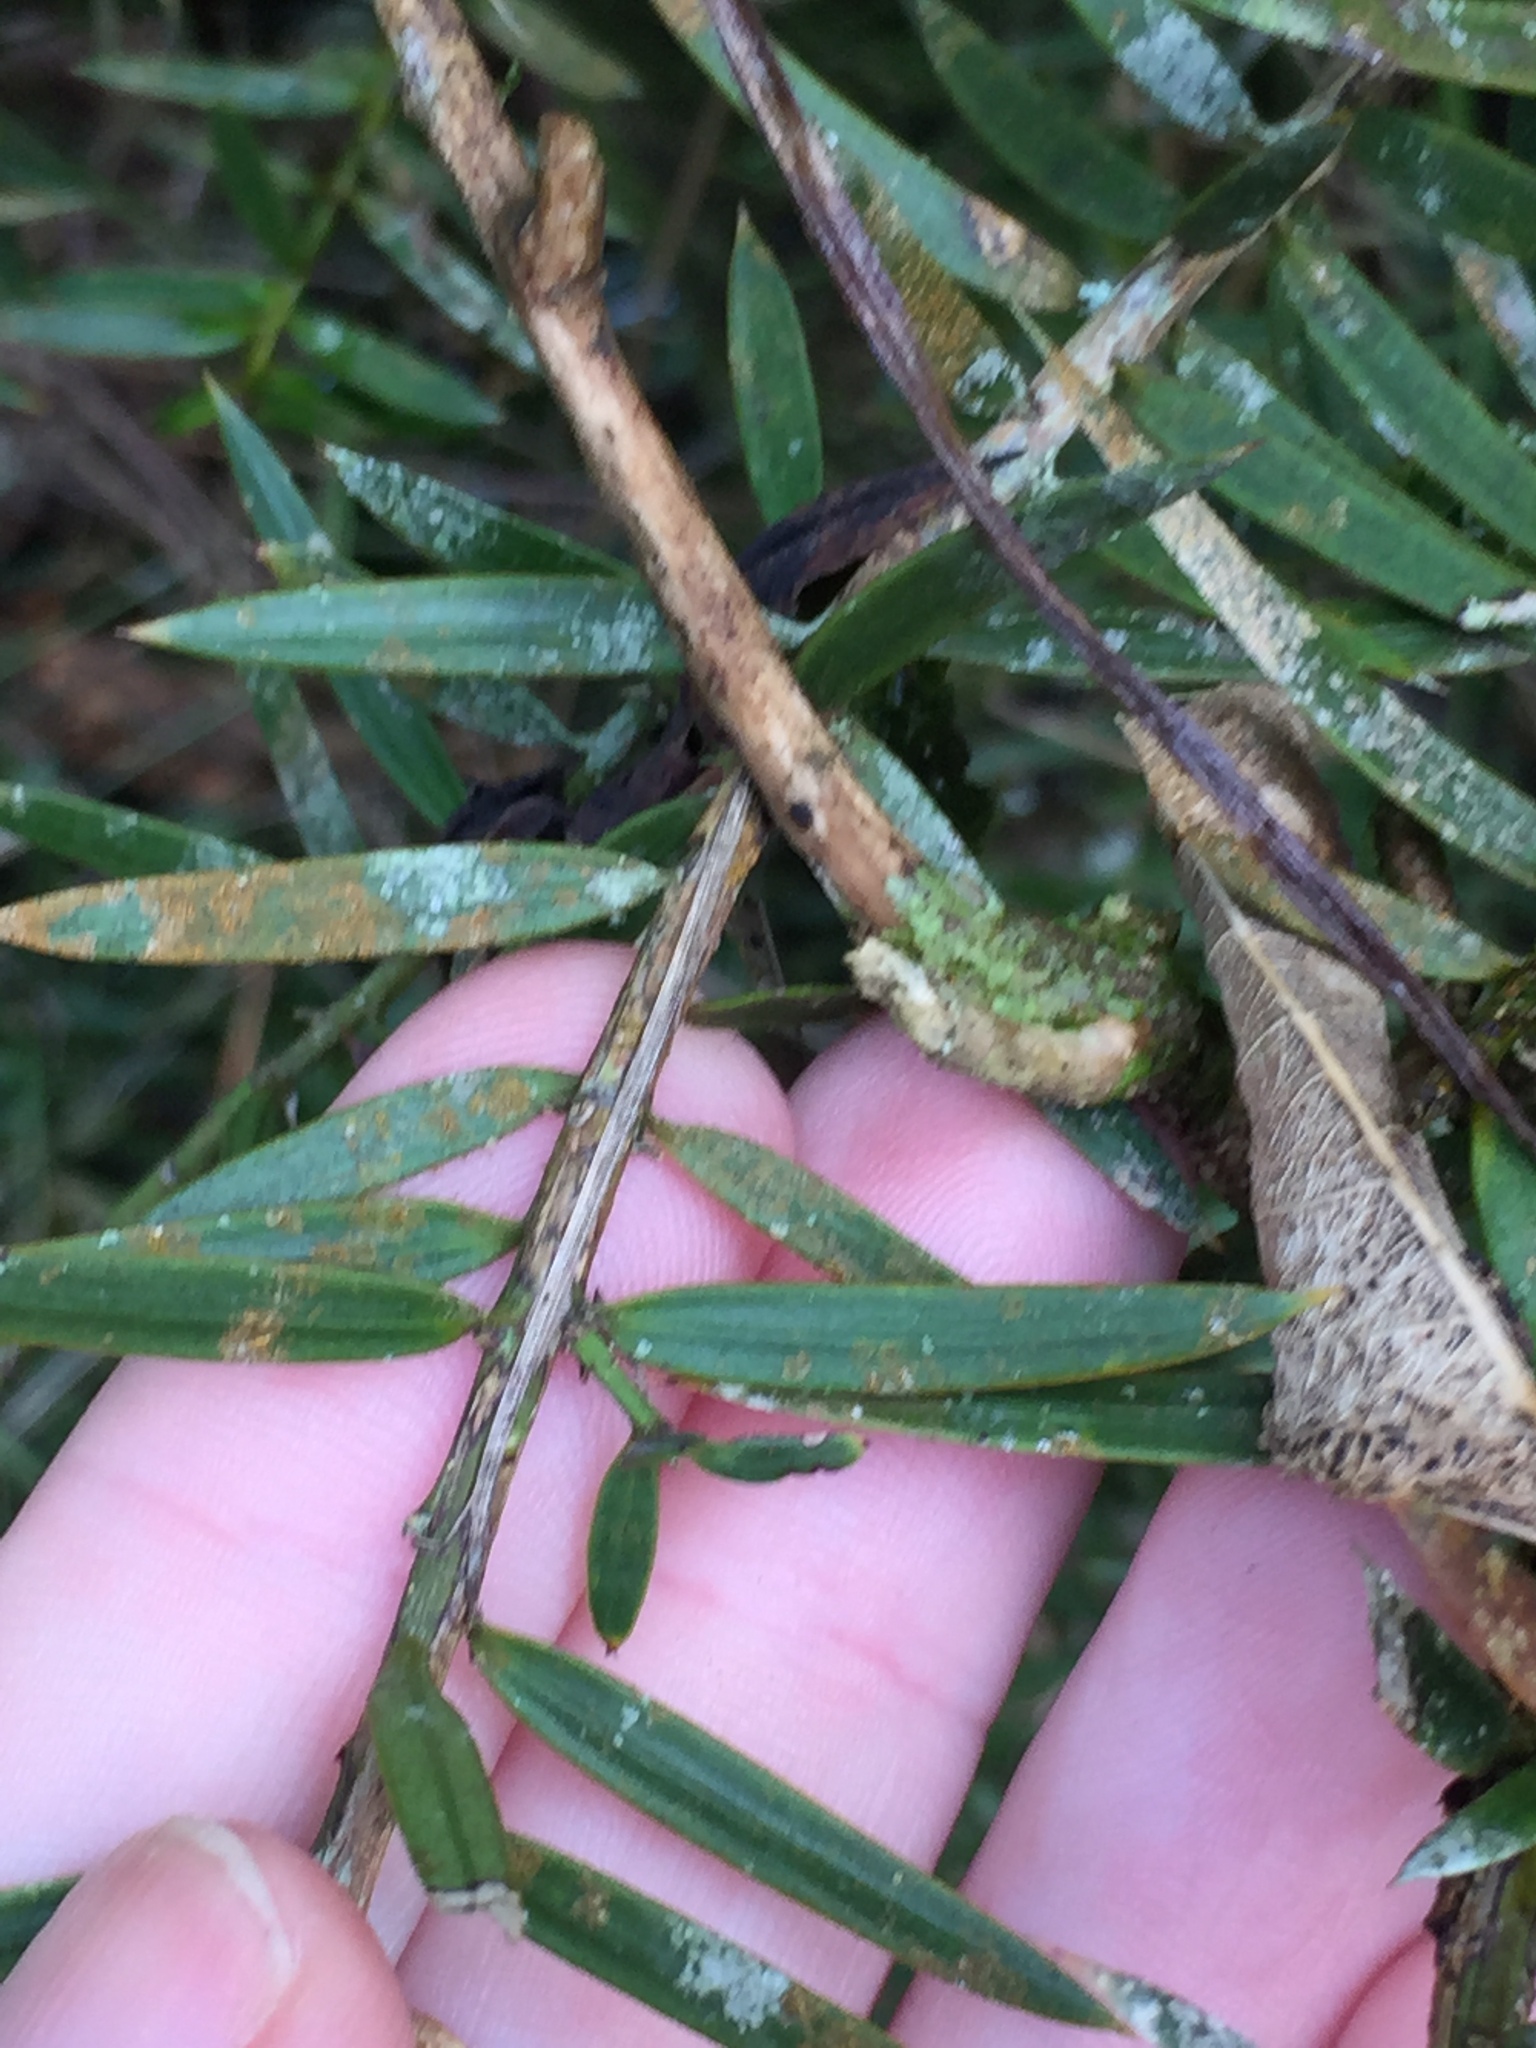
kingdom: Fungi
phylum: Ascomycota
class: Arthoniomycetes
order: Arthoniales
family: Roccellaceae
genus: Enterographa
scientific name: Enterographa bella
